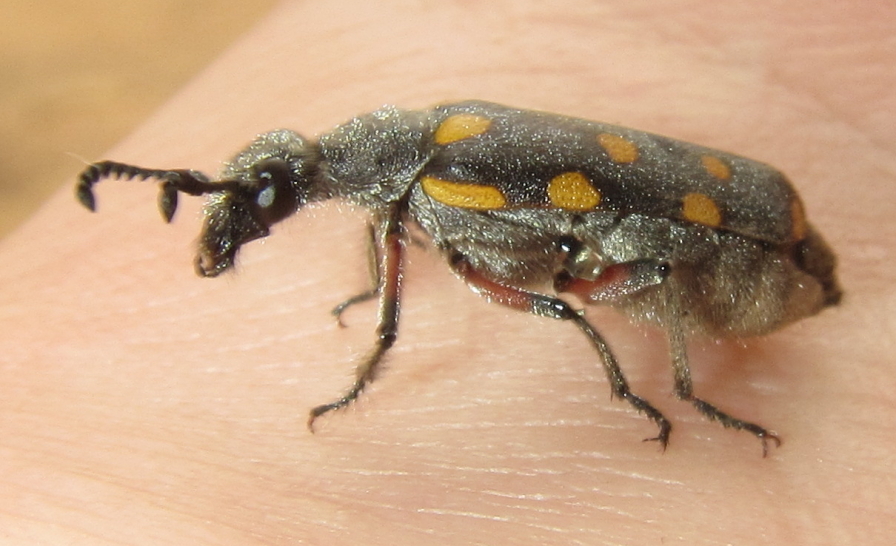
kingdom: Animalia
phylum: Arthropoda
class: Insecta
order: Coleoptera
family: Meloidae
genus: Ceroctis
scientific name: Ceroctis
